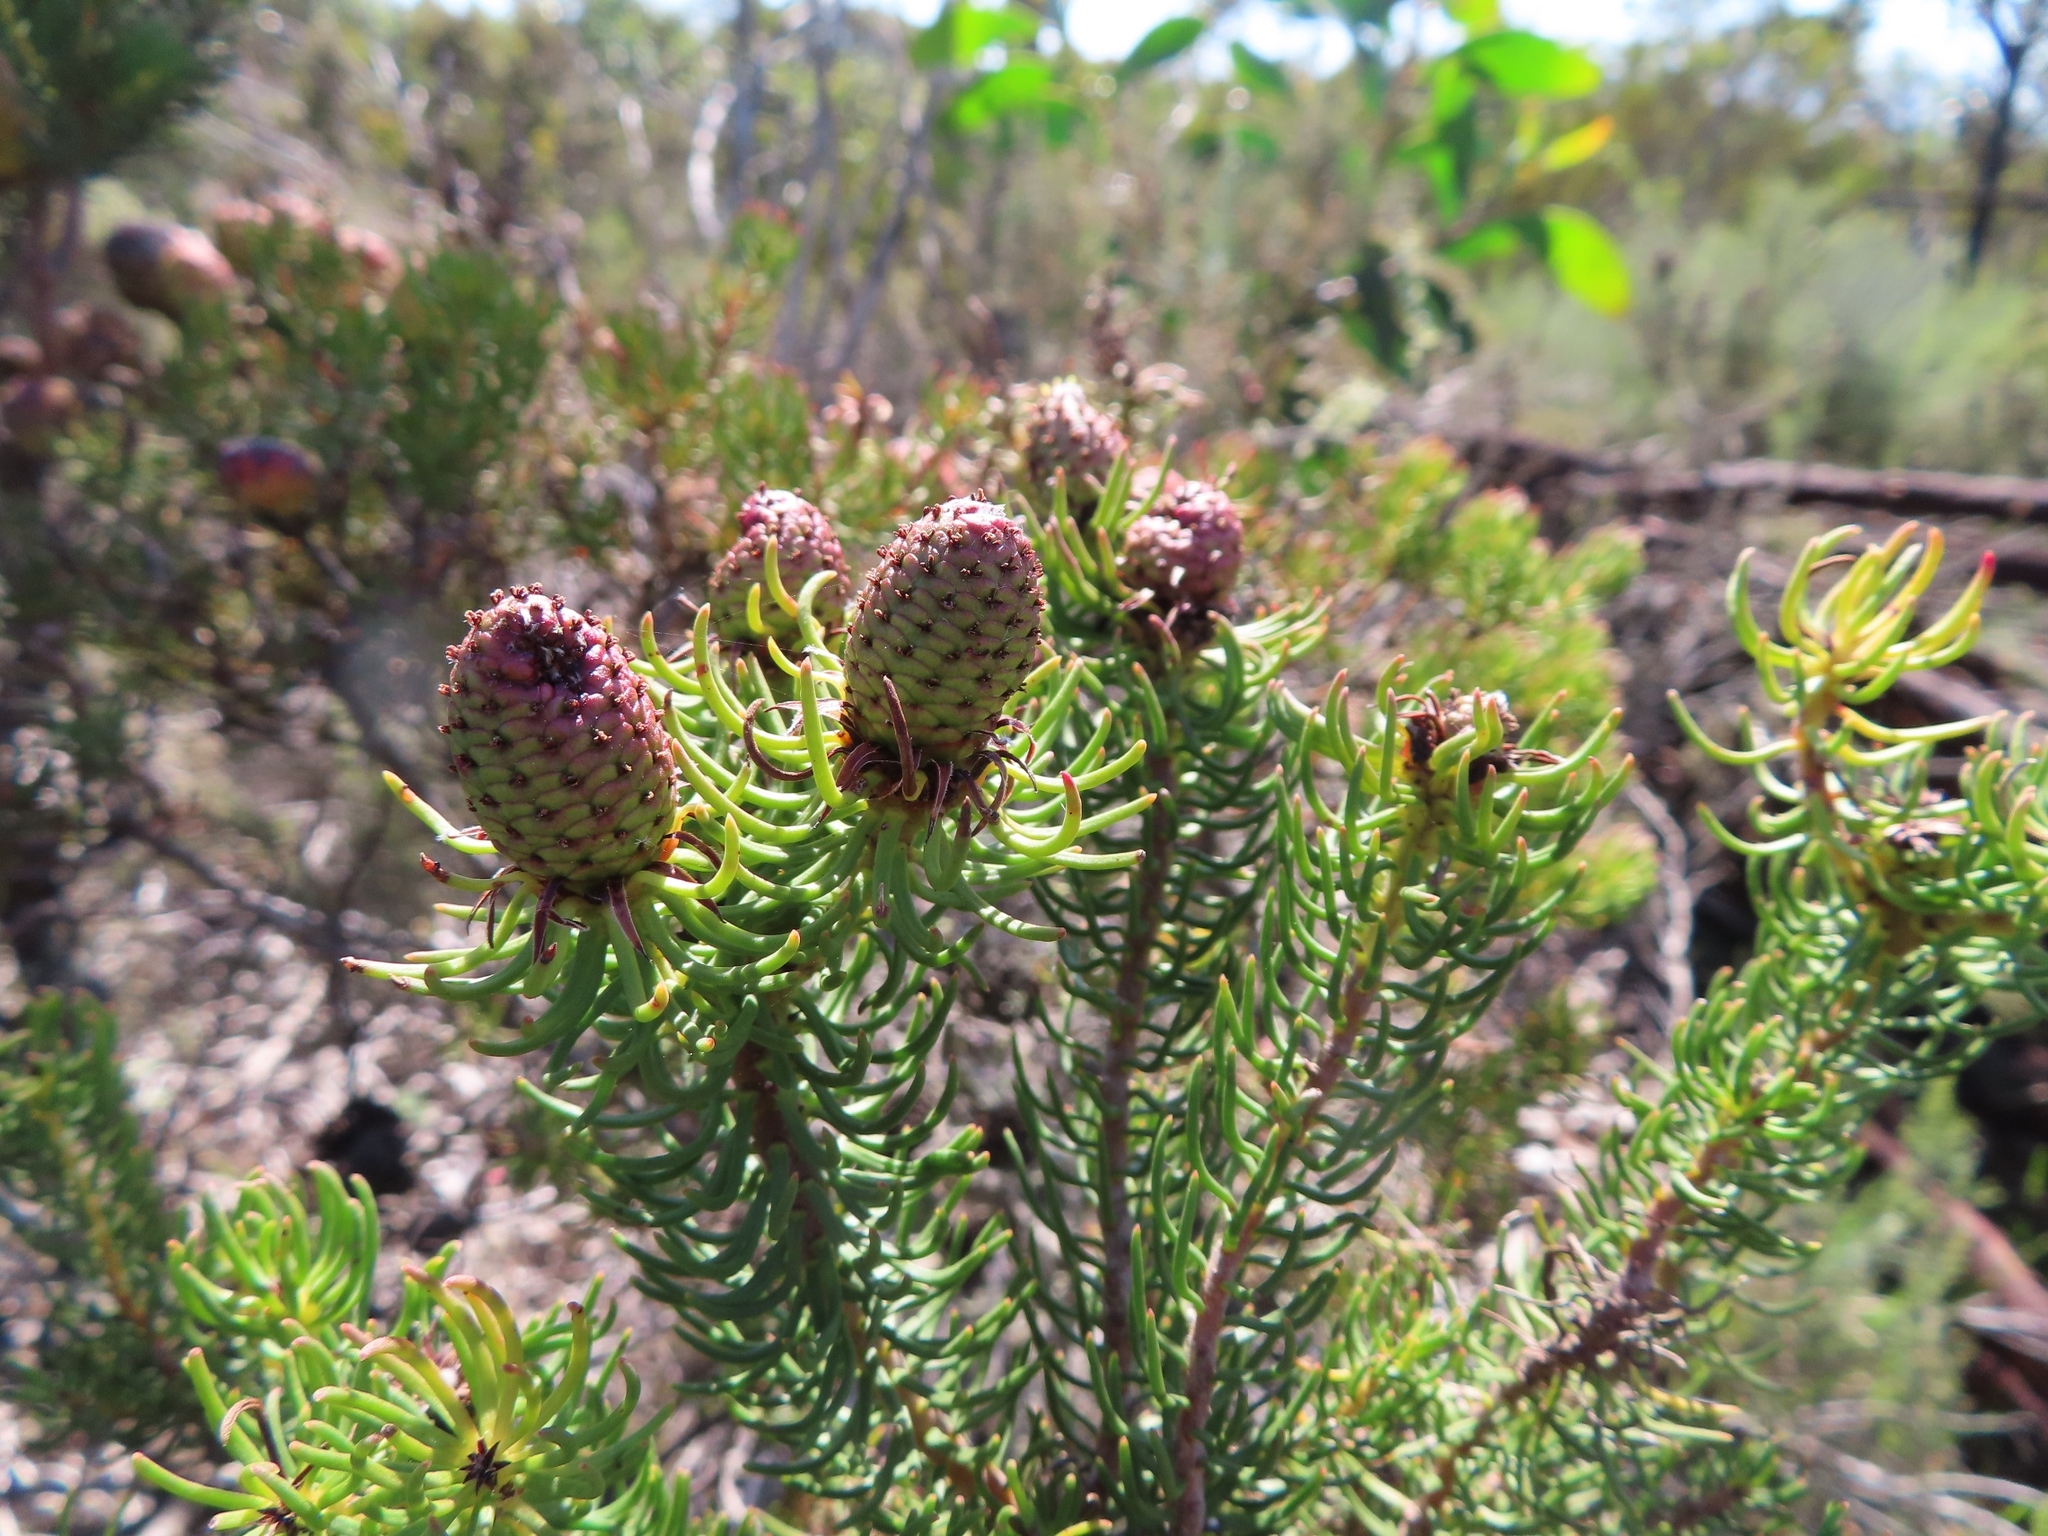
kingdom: Plantae
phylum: Tracheophyta
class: Magnoliopsida
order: Proteales
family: Proteaceae
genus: Leucadendron
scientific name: Leucadendron teretifolium
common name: Needle-leaf conebush
